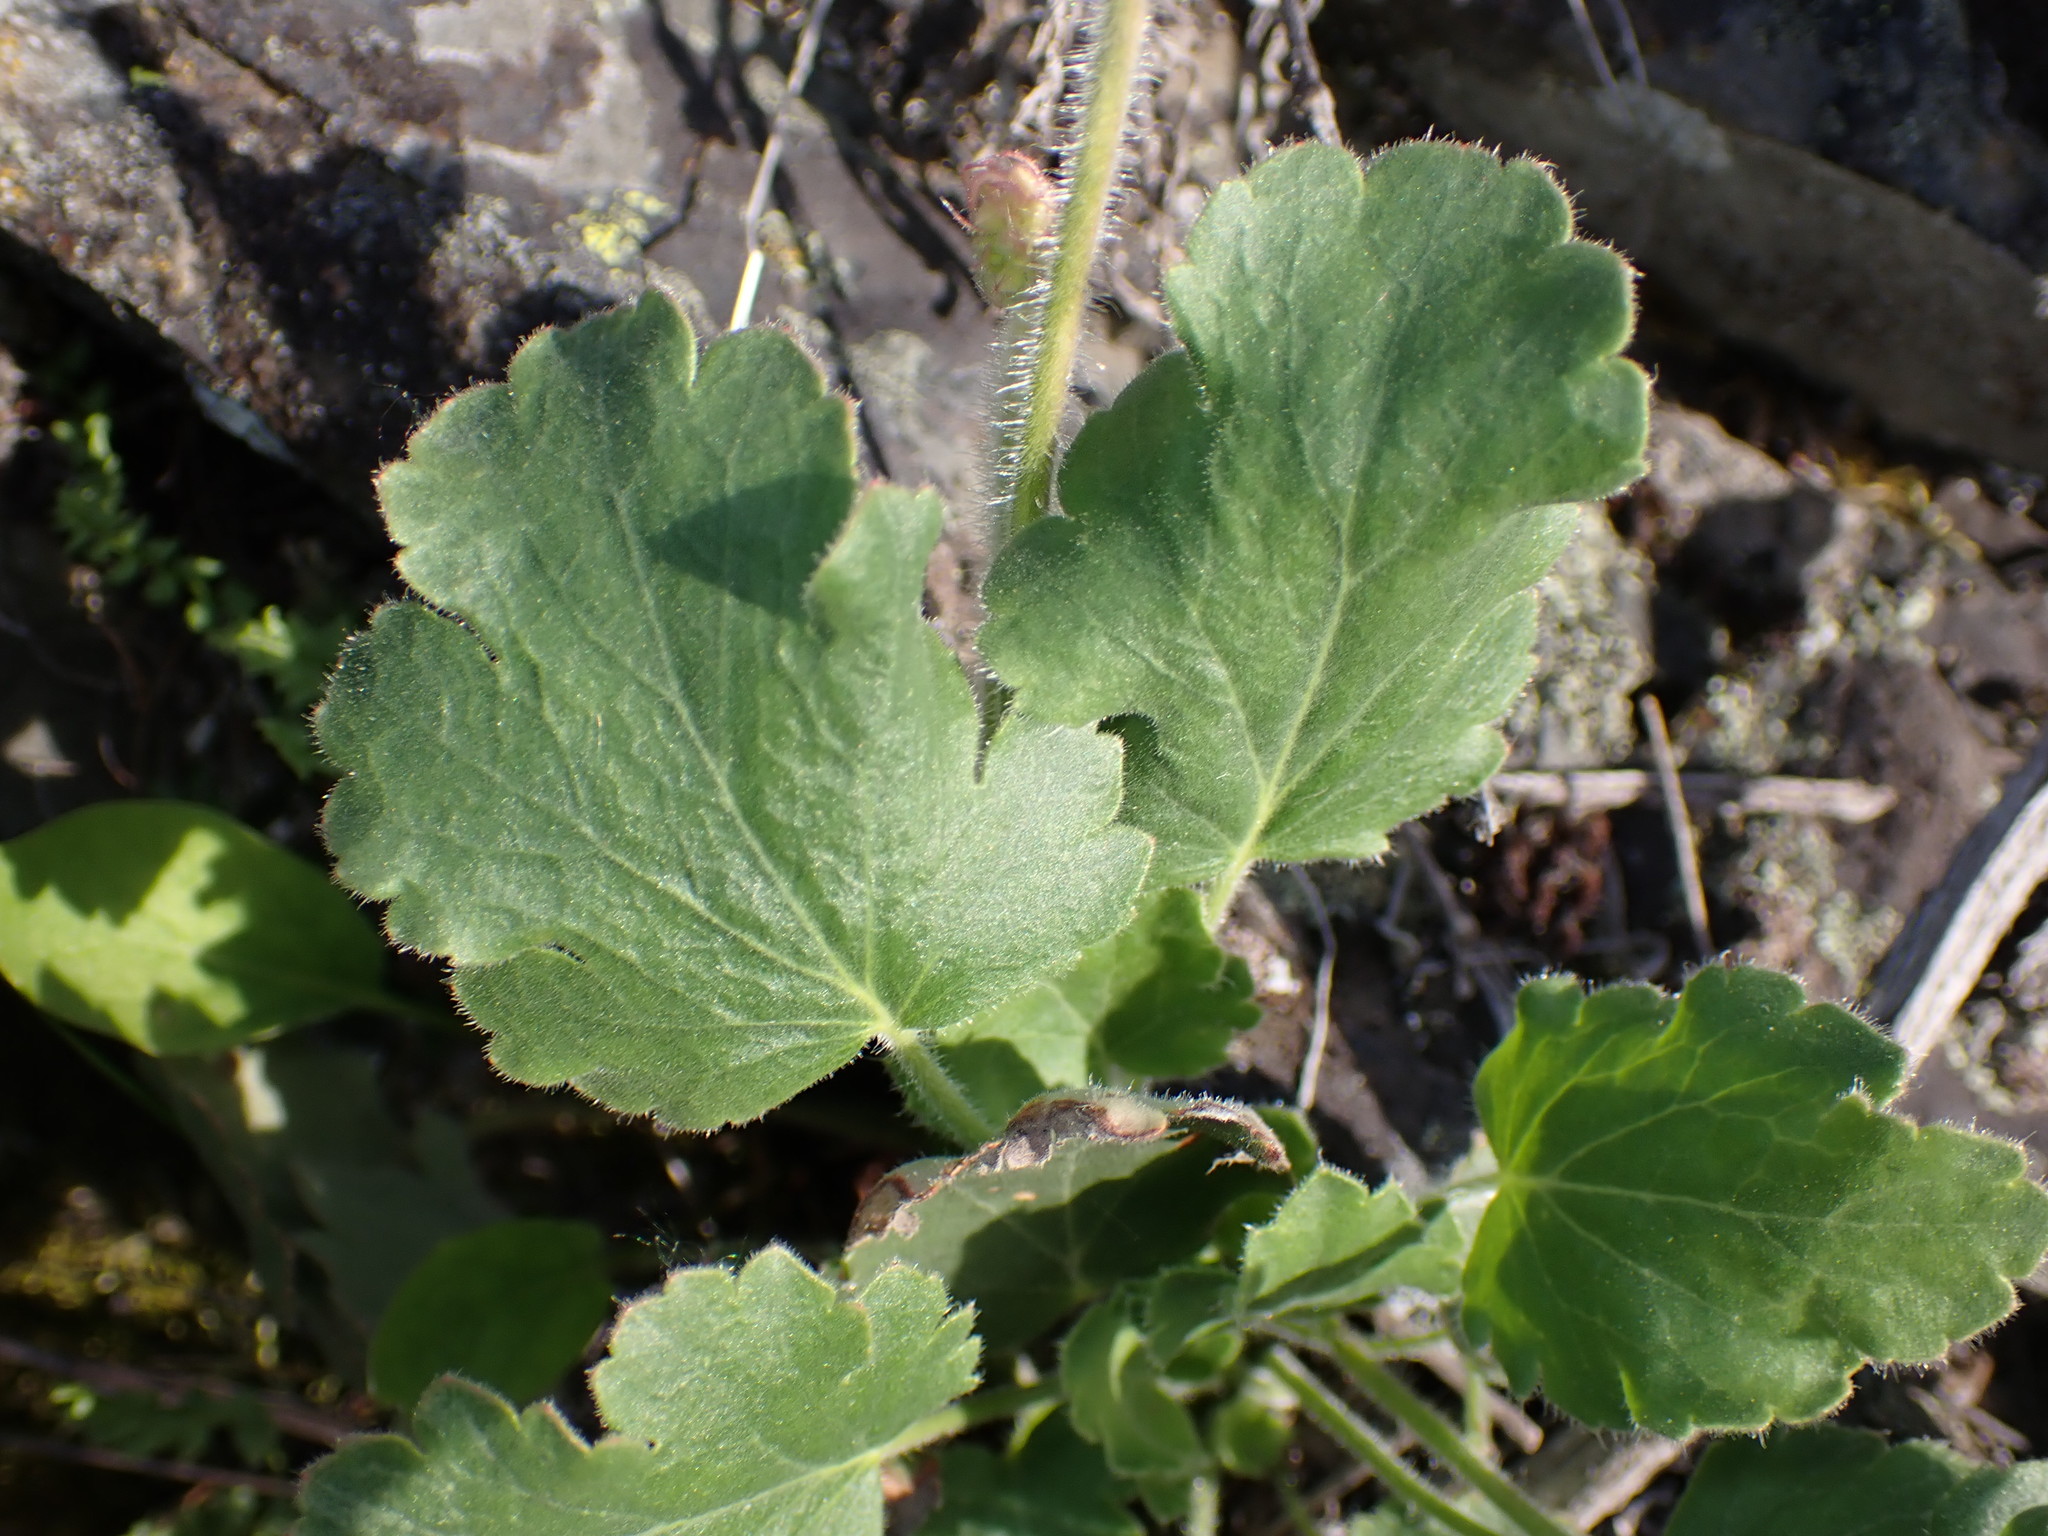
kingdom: Plantae
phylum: Tracheophyta
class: Magnoliopsida
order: Saxifragales
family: Saxifragaceae
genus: Heuchera
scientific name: Heuchera cylindrica
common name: Mat alumroot
